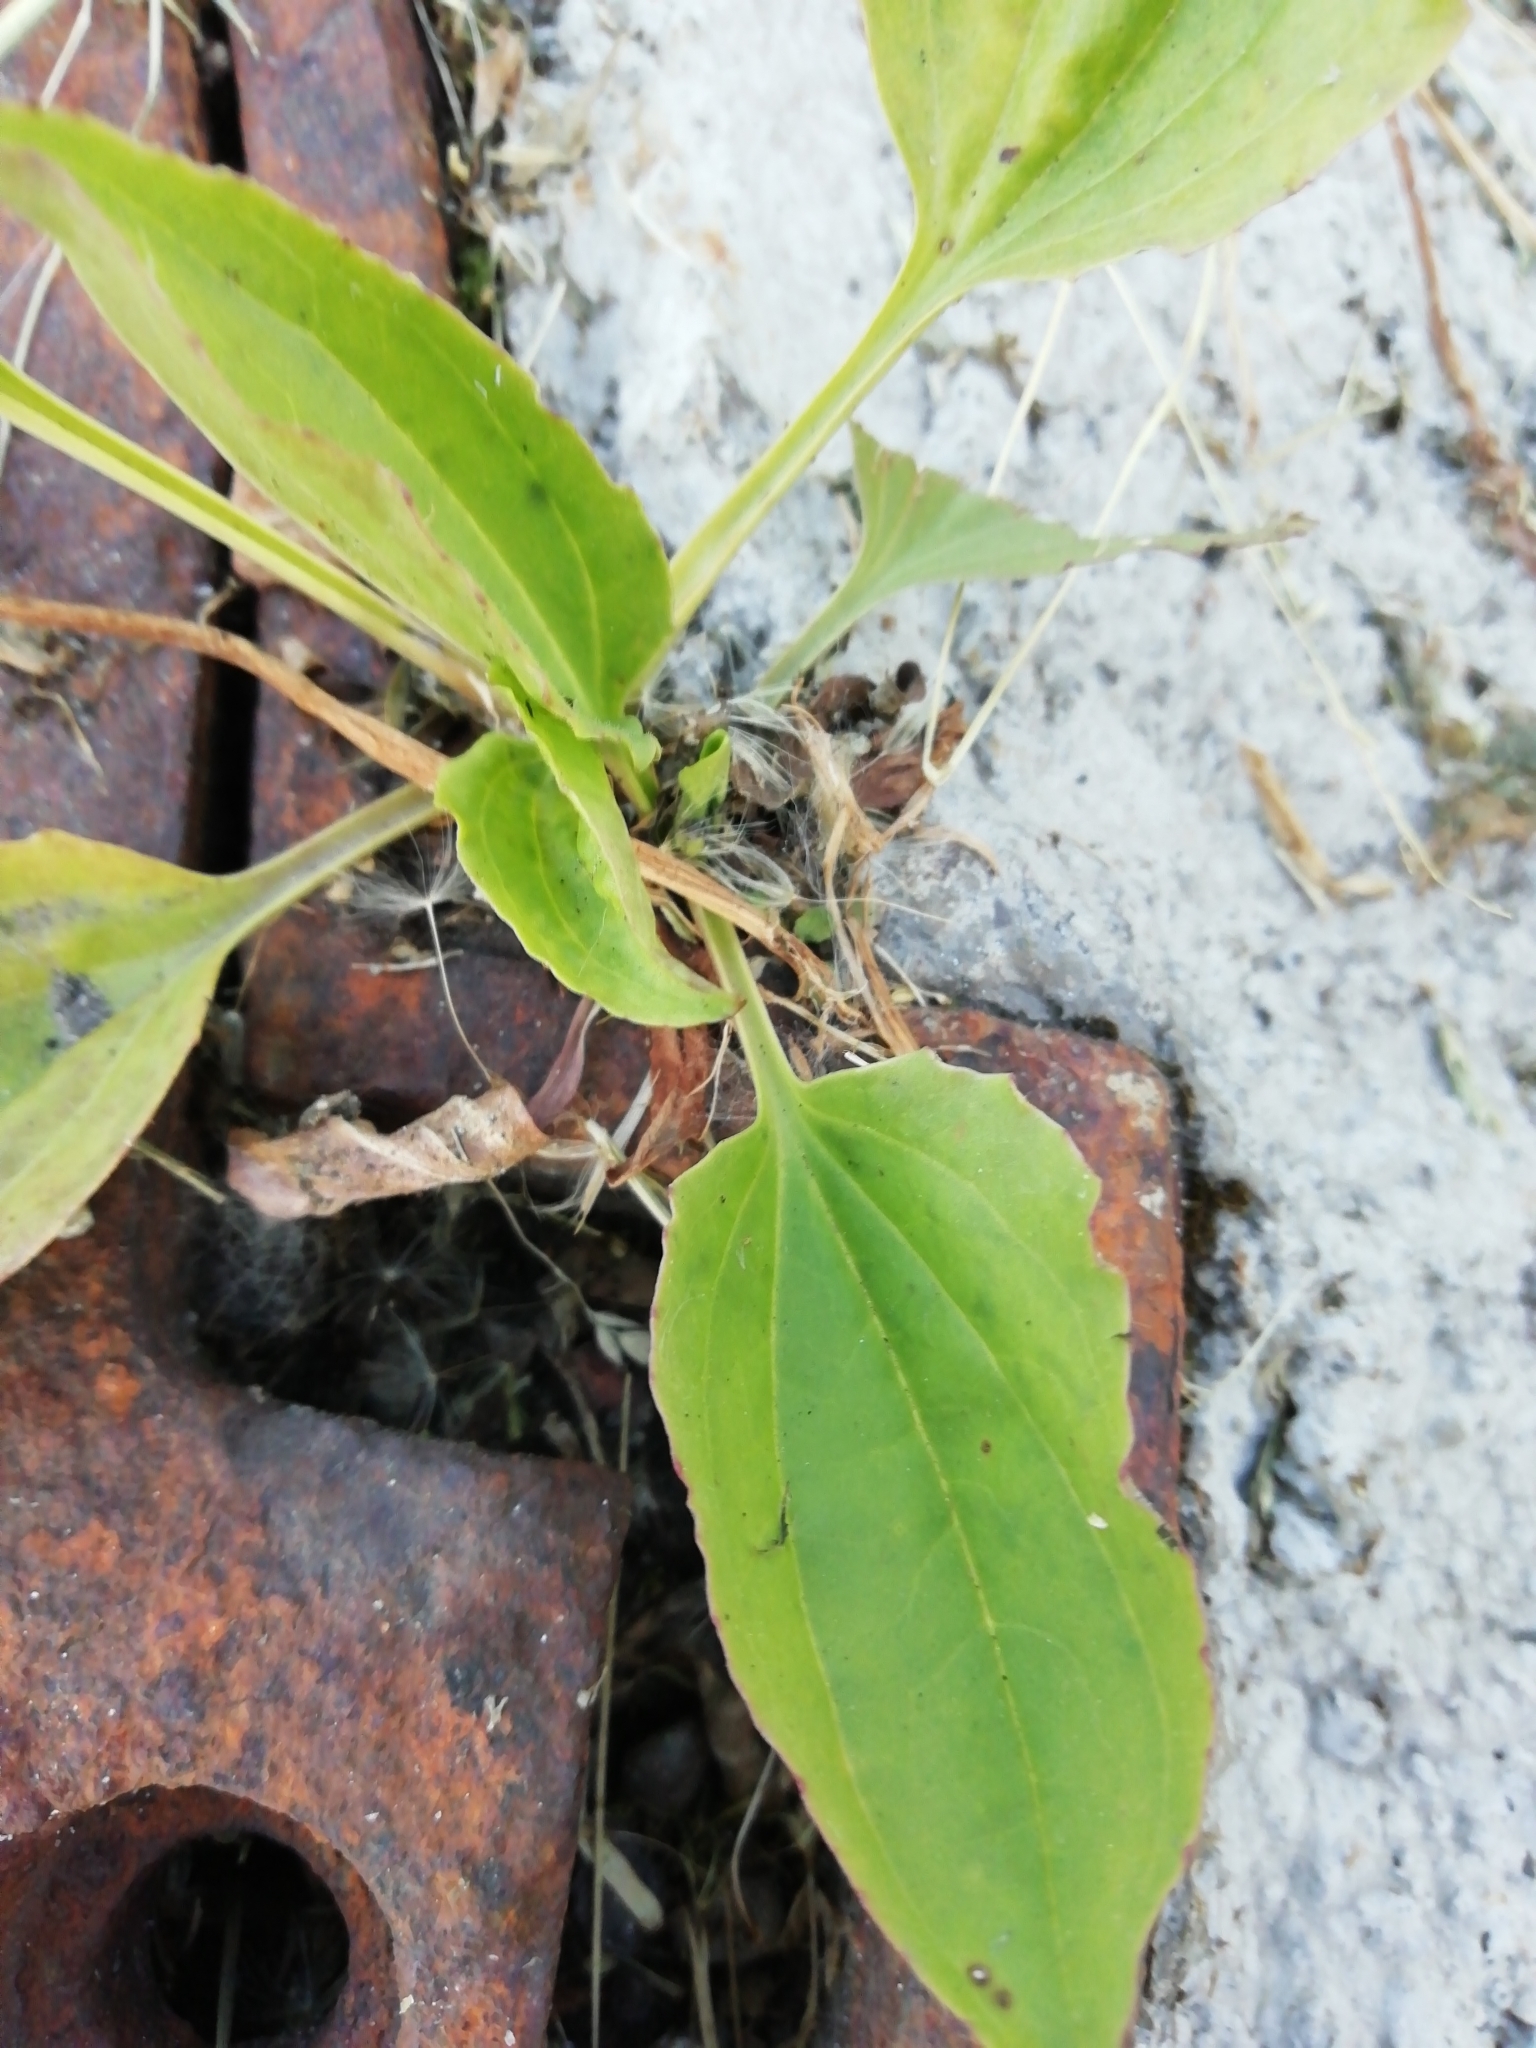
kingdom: Plantae
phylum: Tracheophyta
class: Magnoliopsida
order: Lamiales
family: Plantaginaceae
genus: Plantago
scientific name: Plantago major
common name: Common plantain
